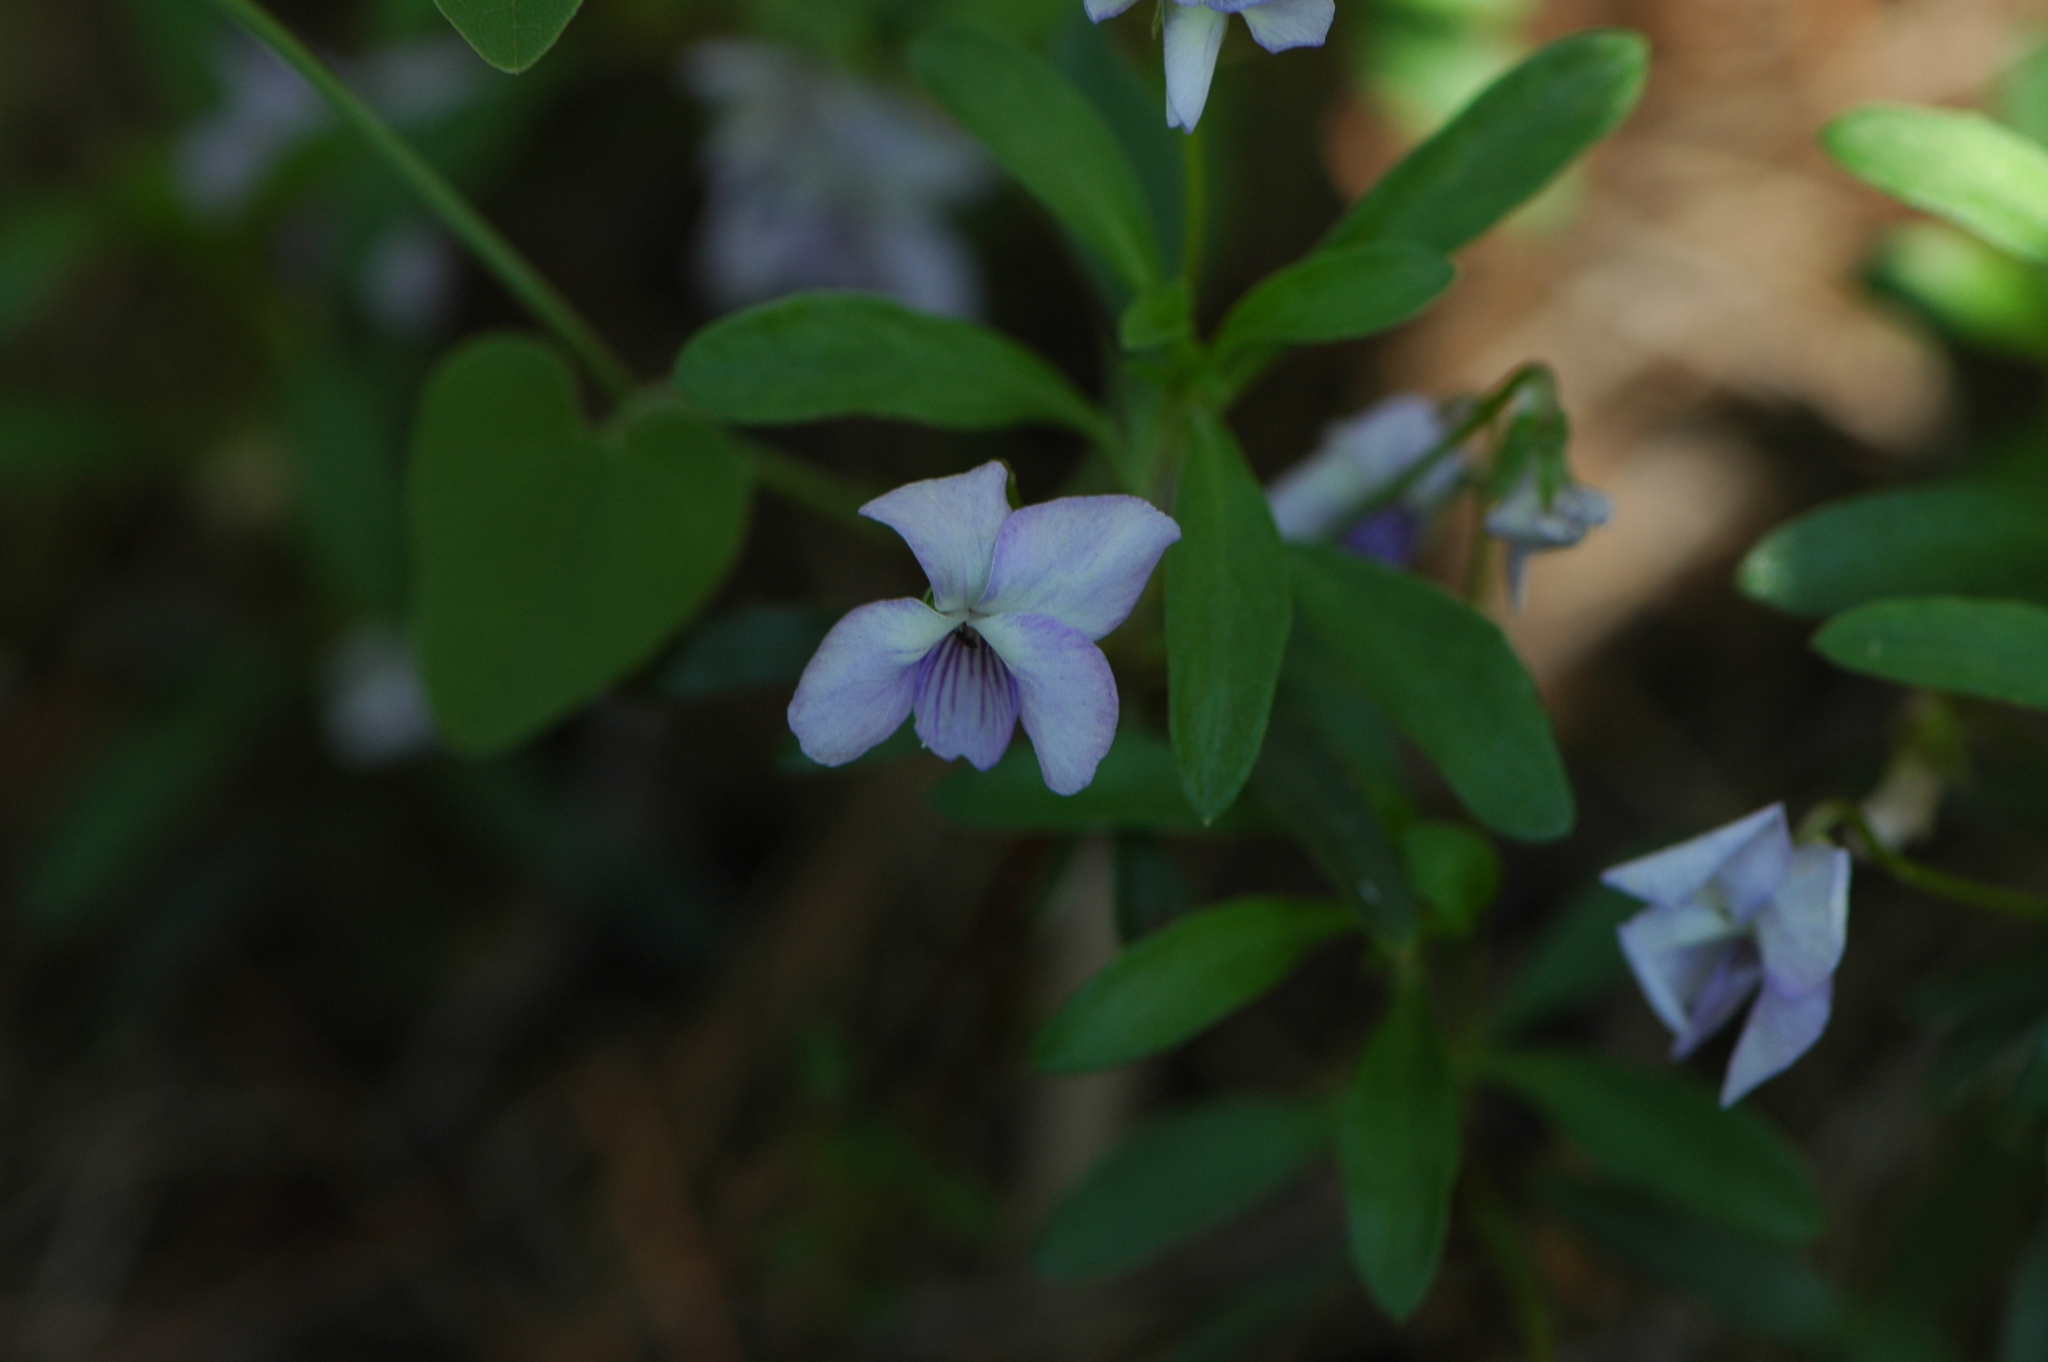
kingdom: Plantae
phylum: Tracheophyta
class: Magnoliopsida
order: Malpighiales
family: Violaceae
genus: Viola
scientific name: Viola arborescens
